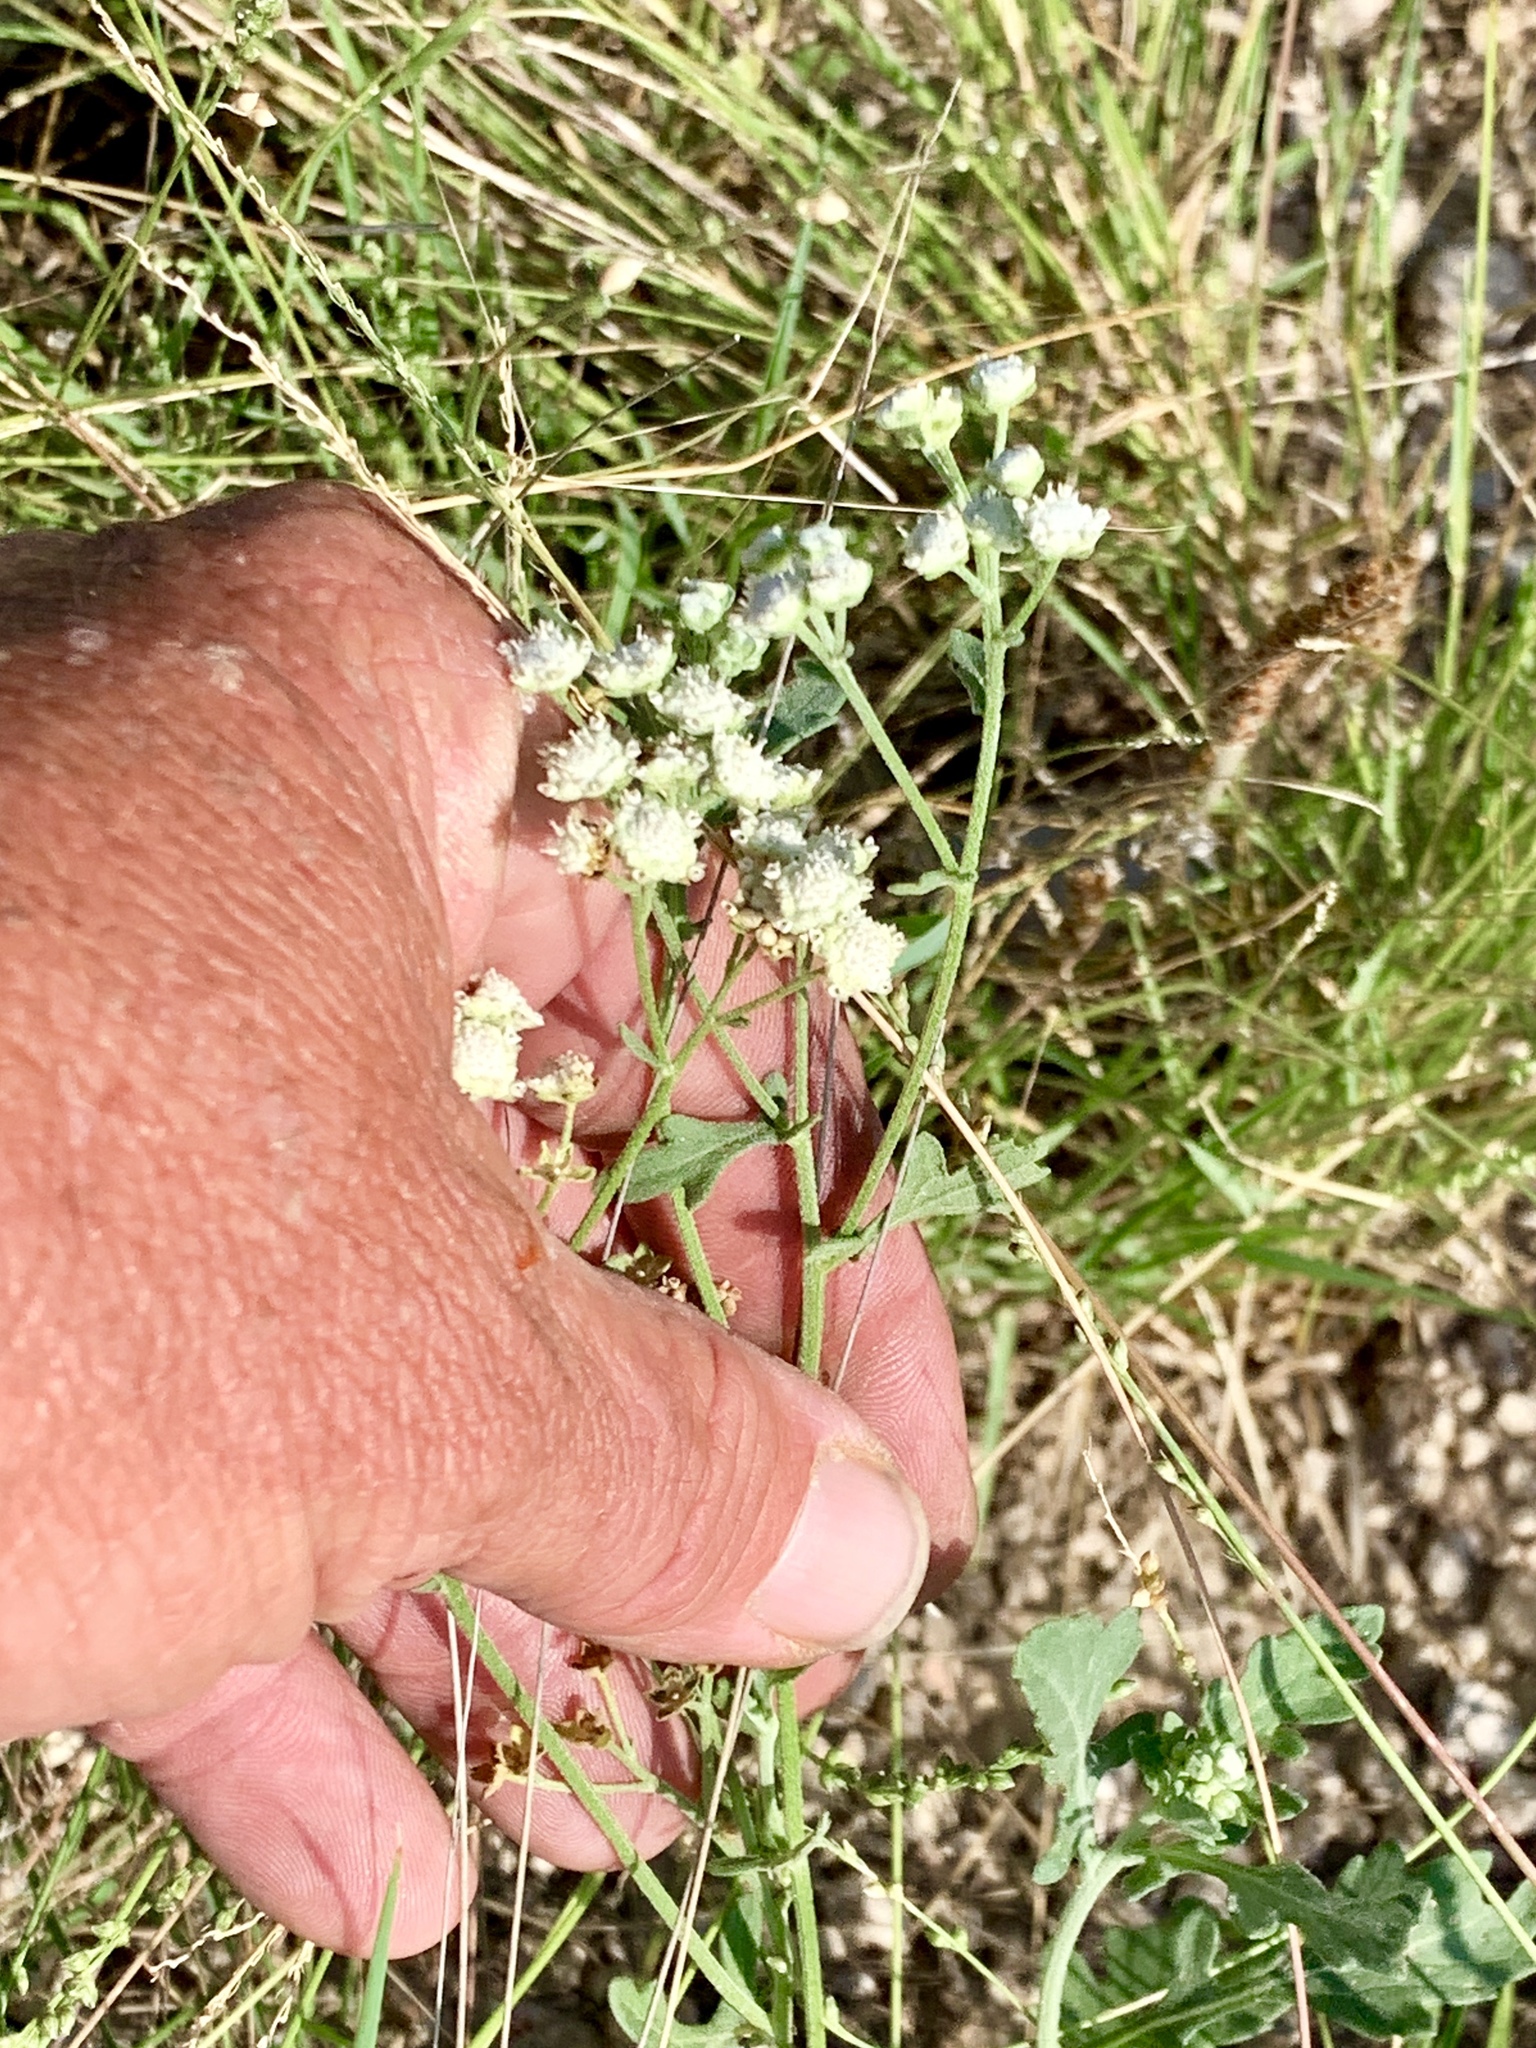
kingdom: Plantae
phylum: Tracheophyta
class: Magnoliopsida
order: Asterales
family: Asteraceae
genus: Parthenium
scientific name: Parthenium hysterophorus
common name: Santa maria feverfew
